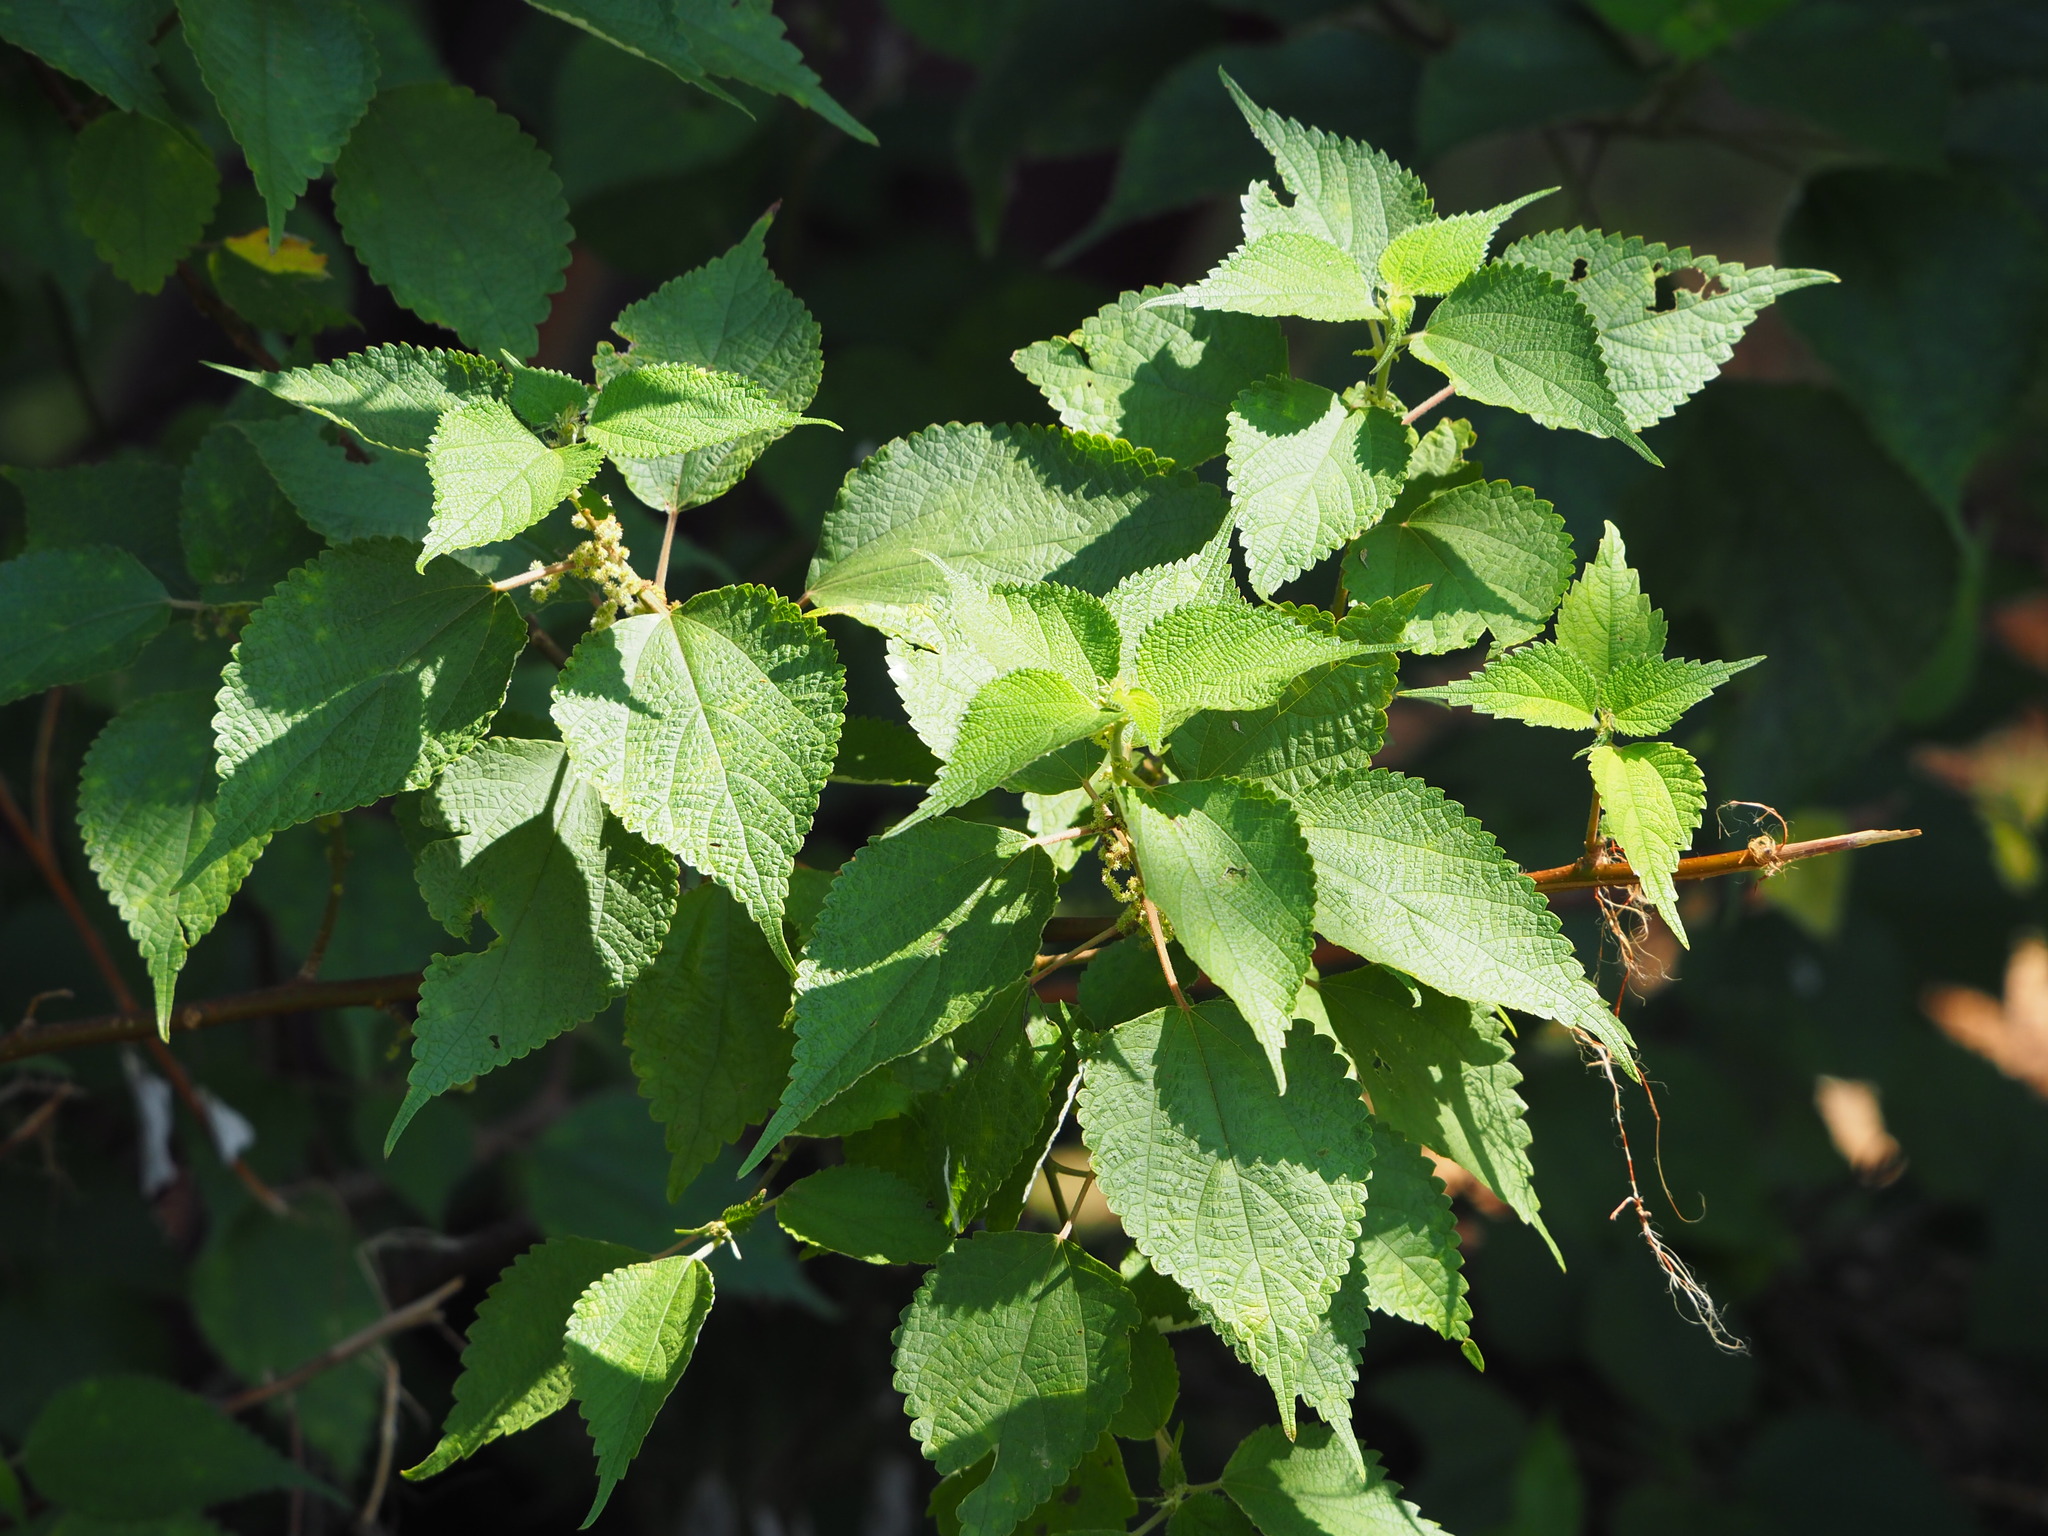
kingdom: Plantae
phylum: Tracheophyta
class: Magnoliopsida
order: Rosales
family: Urticaceae
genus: Boehmeria
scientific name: Boehmeria nivea
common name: Ramie chinese grass
